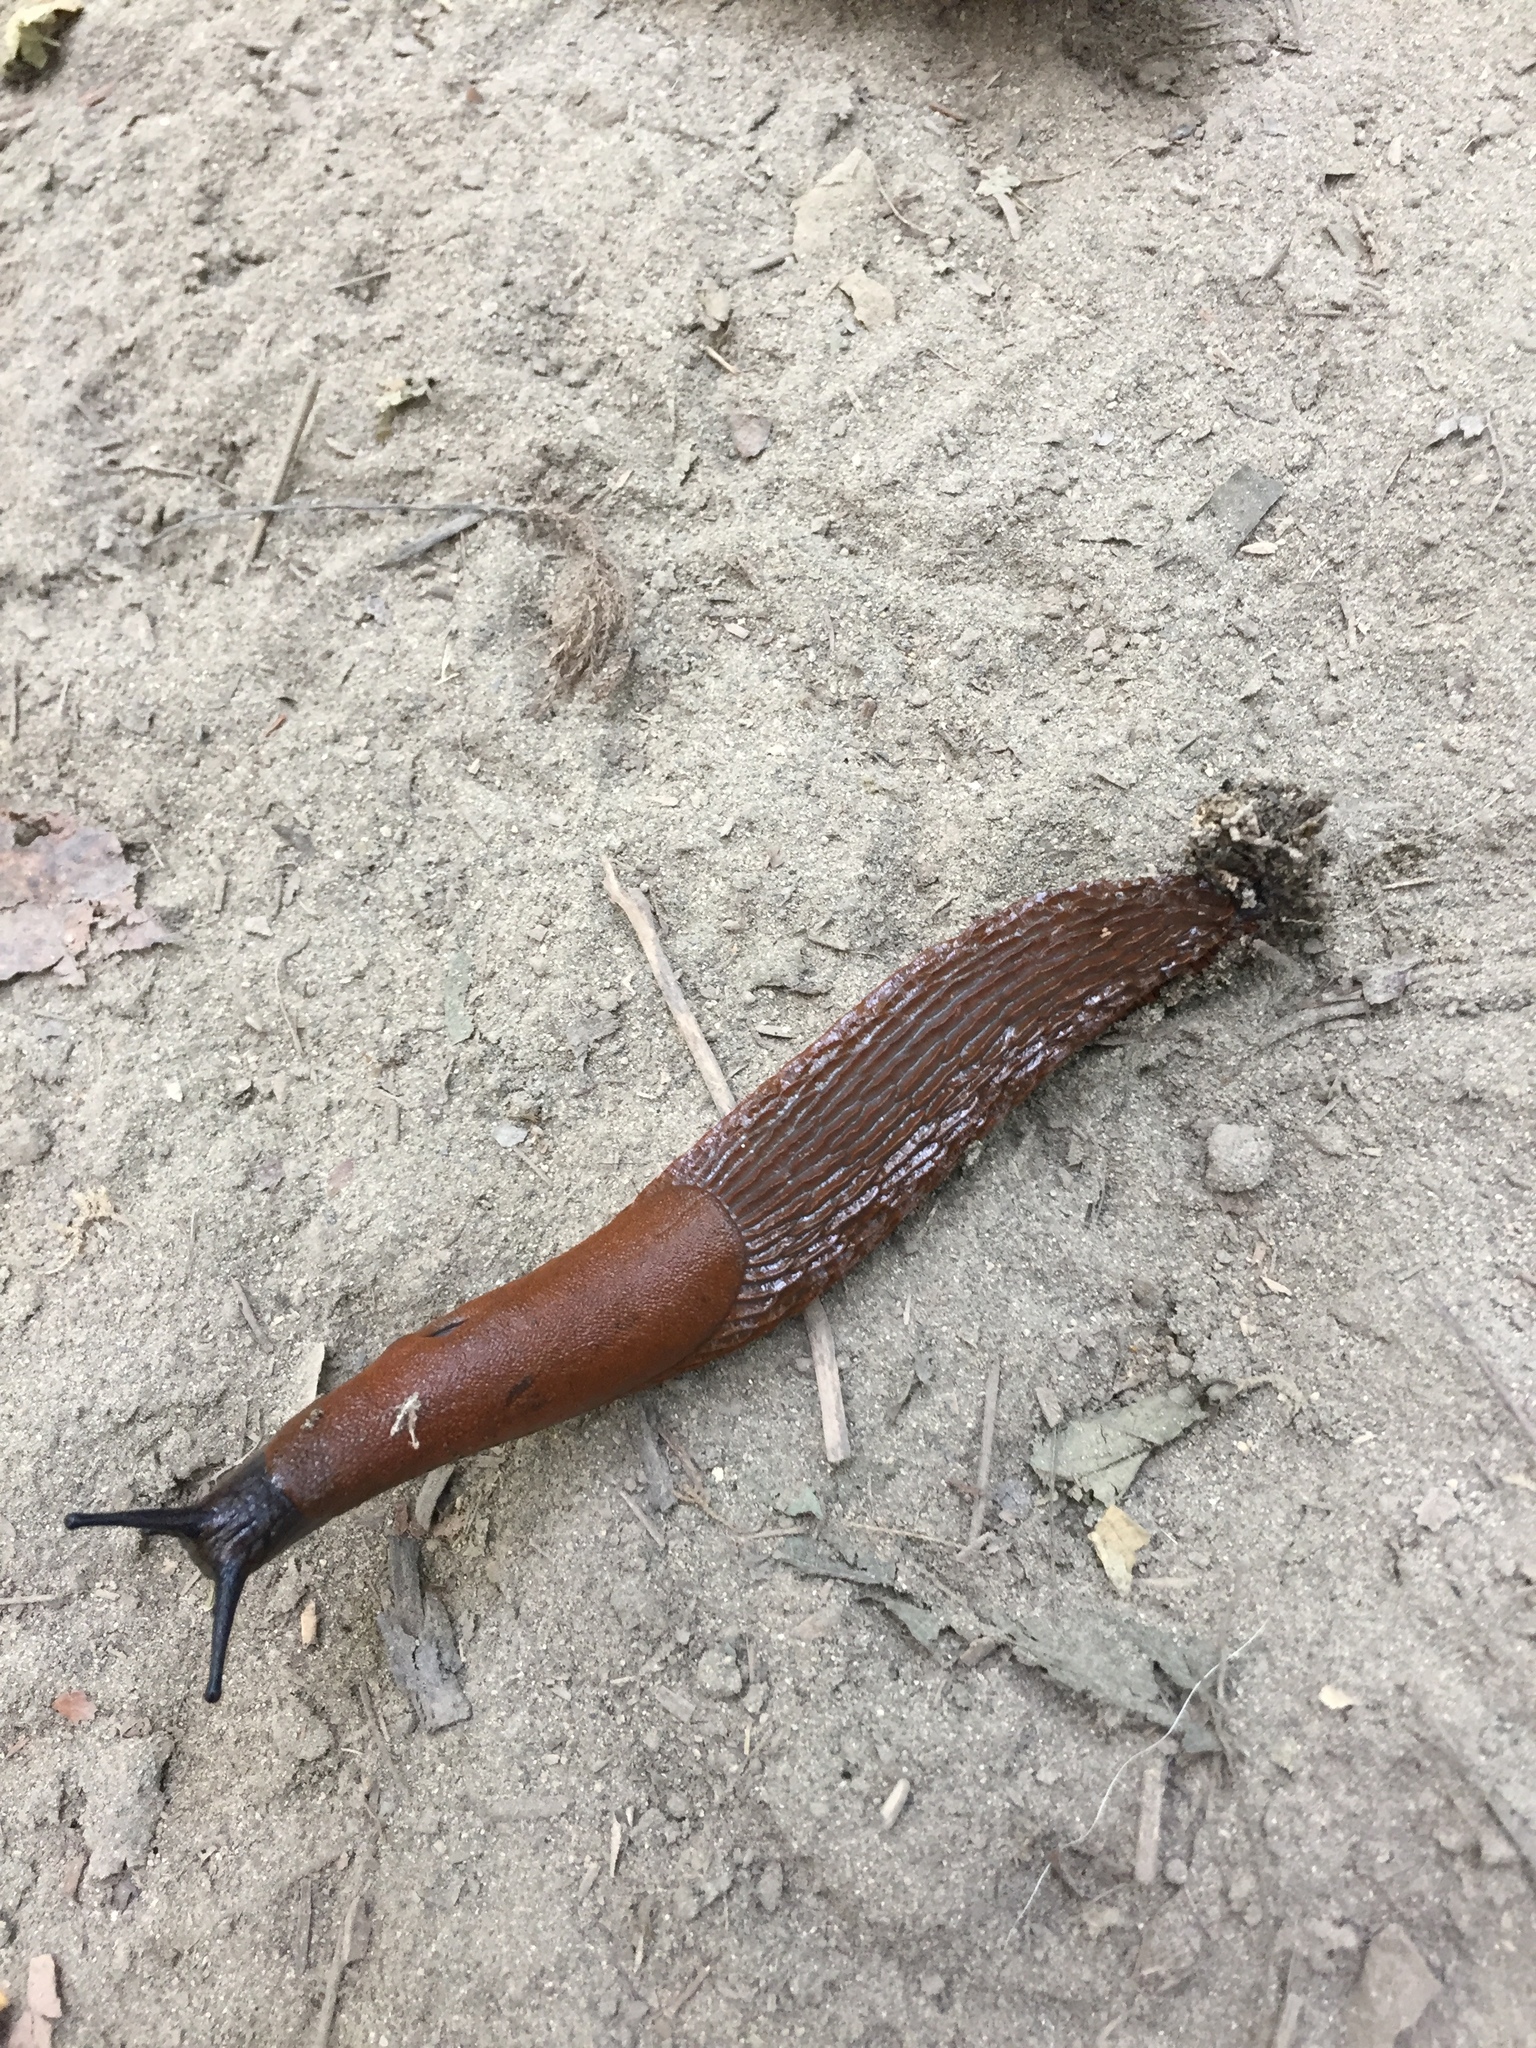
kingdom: Animalia
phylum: Mollusca
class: Gastropoda
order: Stylommatophora
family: Arionidae
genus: Arion
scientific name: Arion rufus
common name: Chocolate arion
